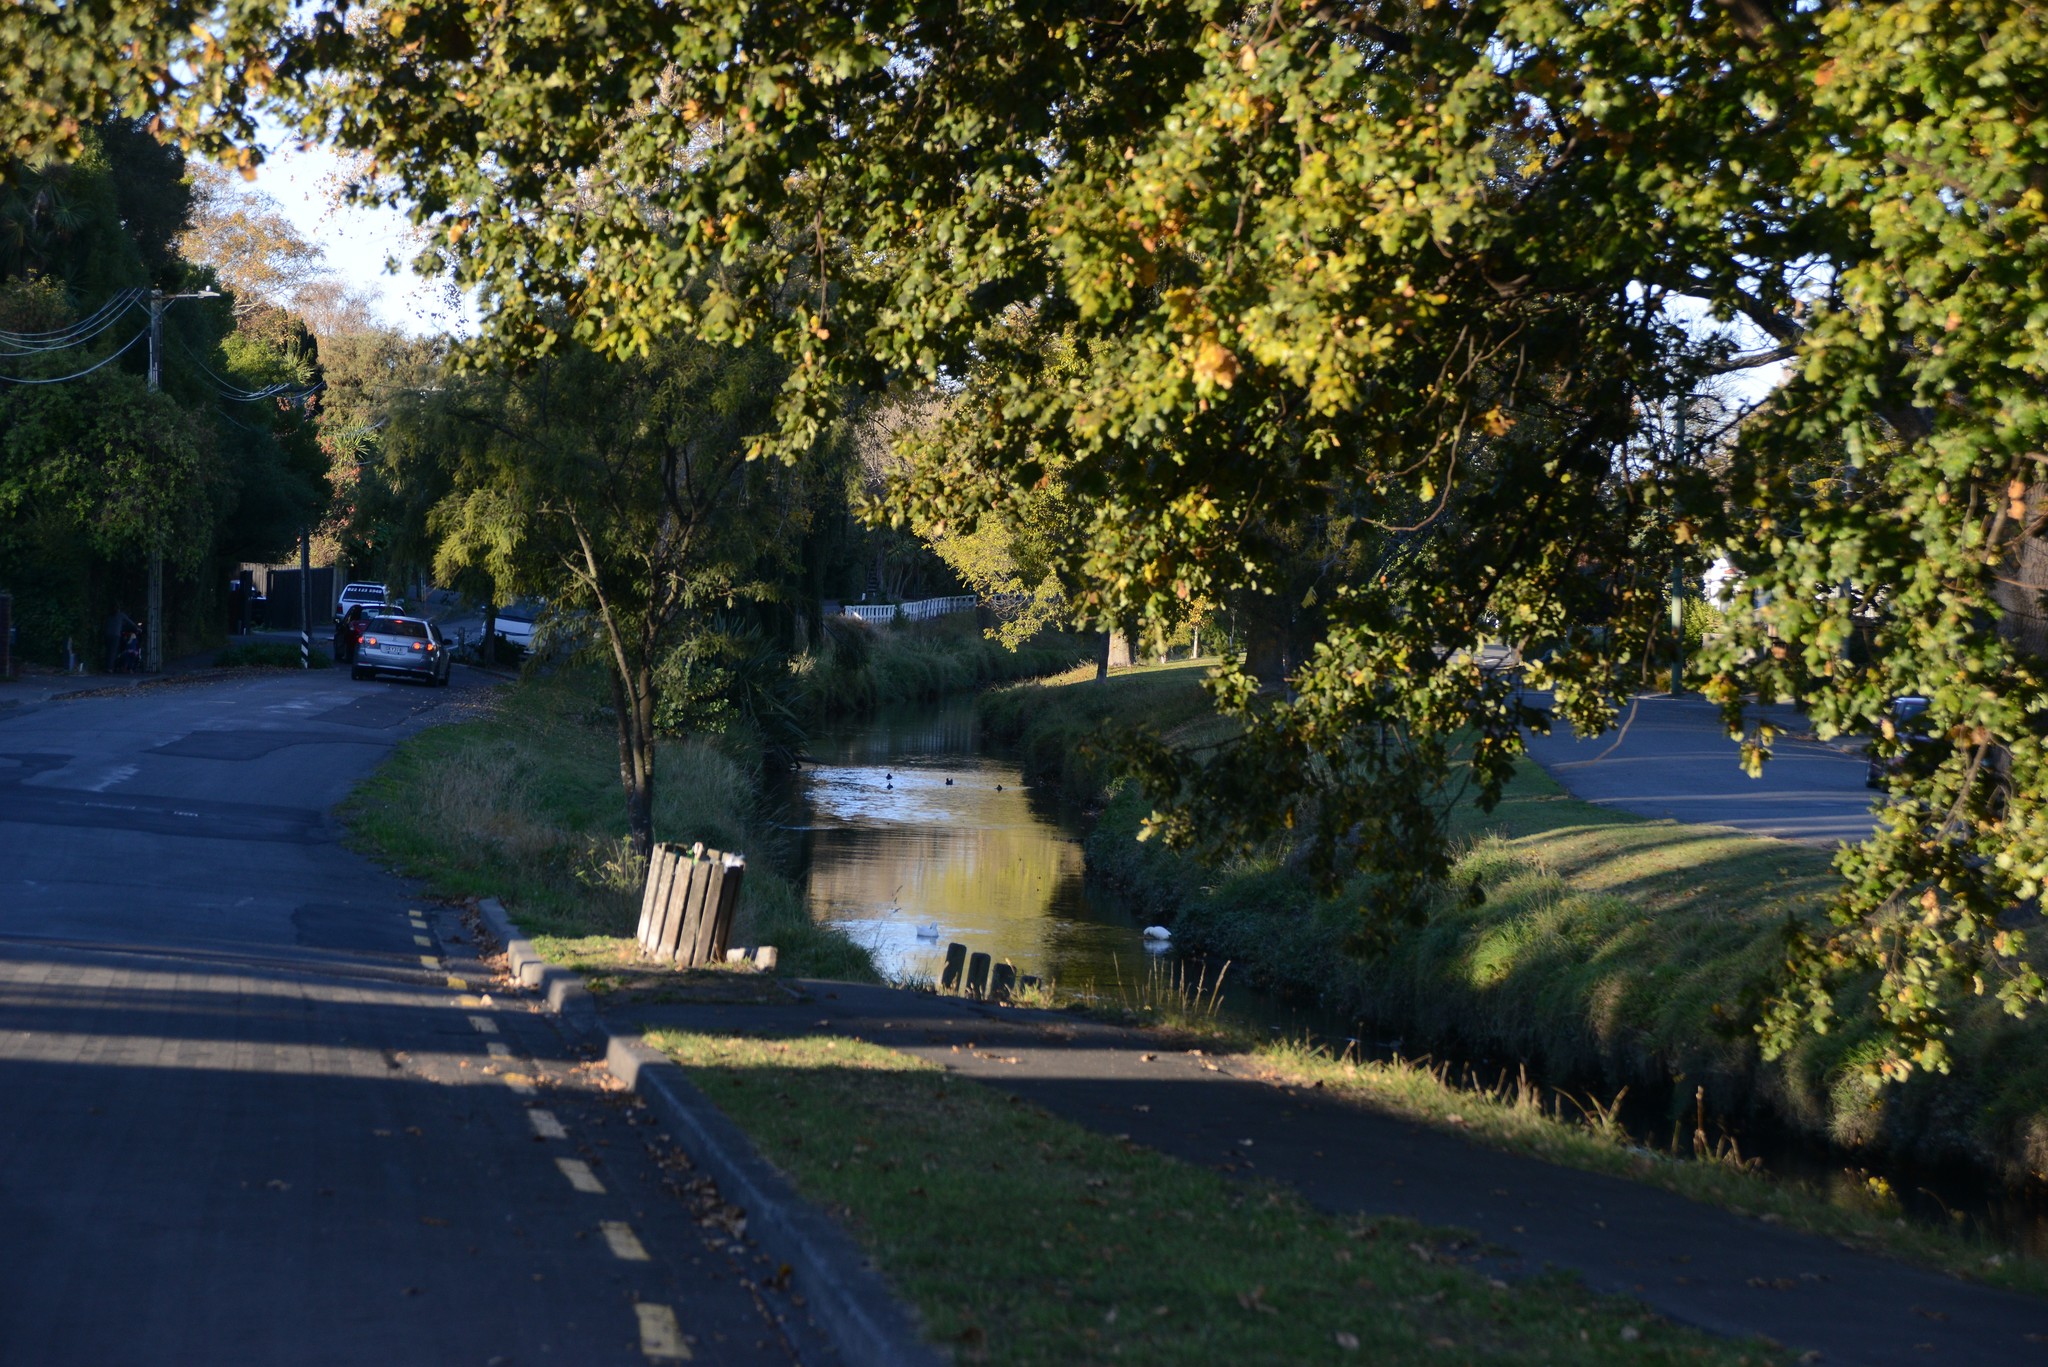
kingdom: Animalia
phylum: Chordata
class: Aves
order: Anseriformes
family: Anatidae
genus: Anas
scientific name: Anas platyrhynchos
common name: Mallard
